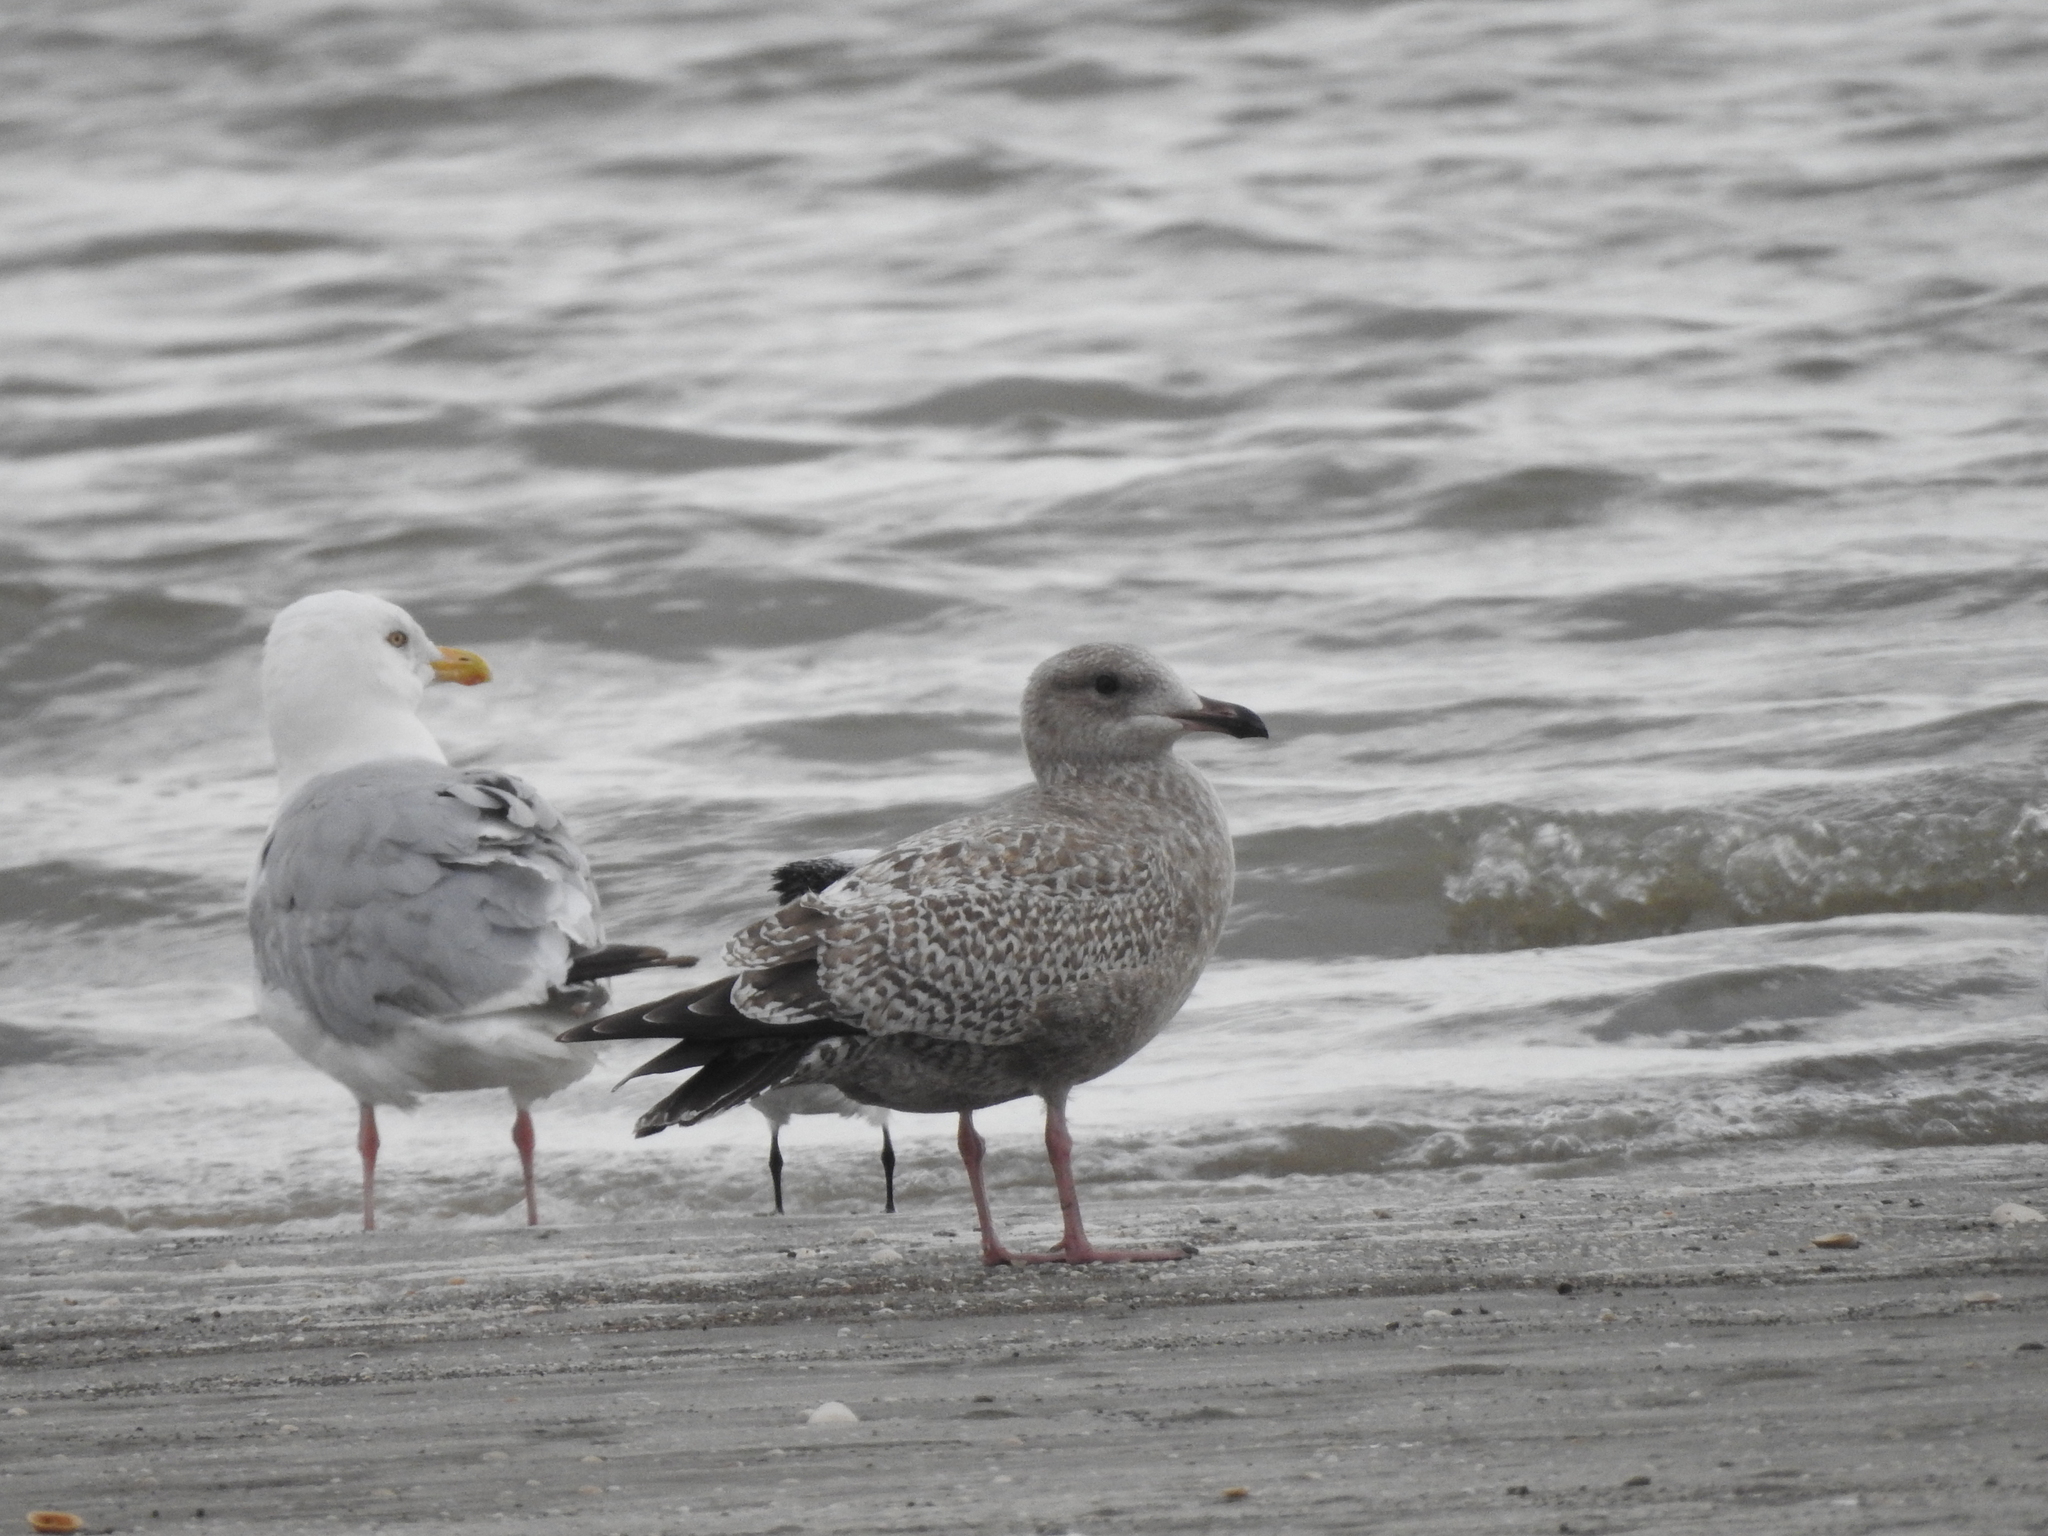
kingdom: Animalia
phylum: Chordata
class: Aves
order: Charadriiformes
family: Laridae
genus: Larus
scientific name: Larus argentatus
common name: Herring gull
